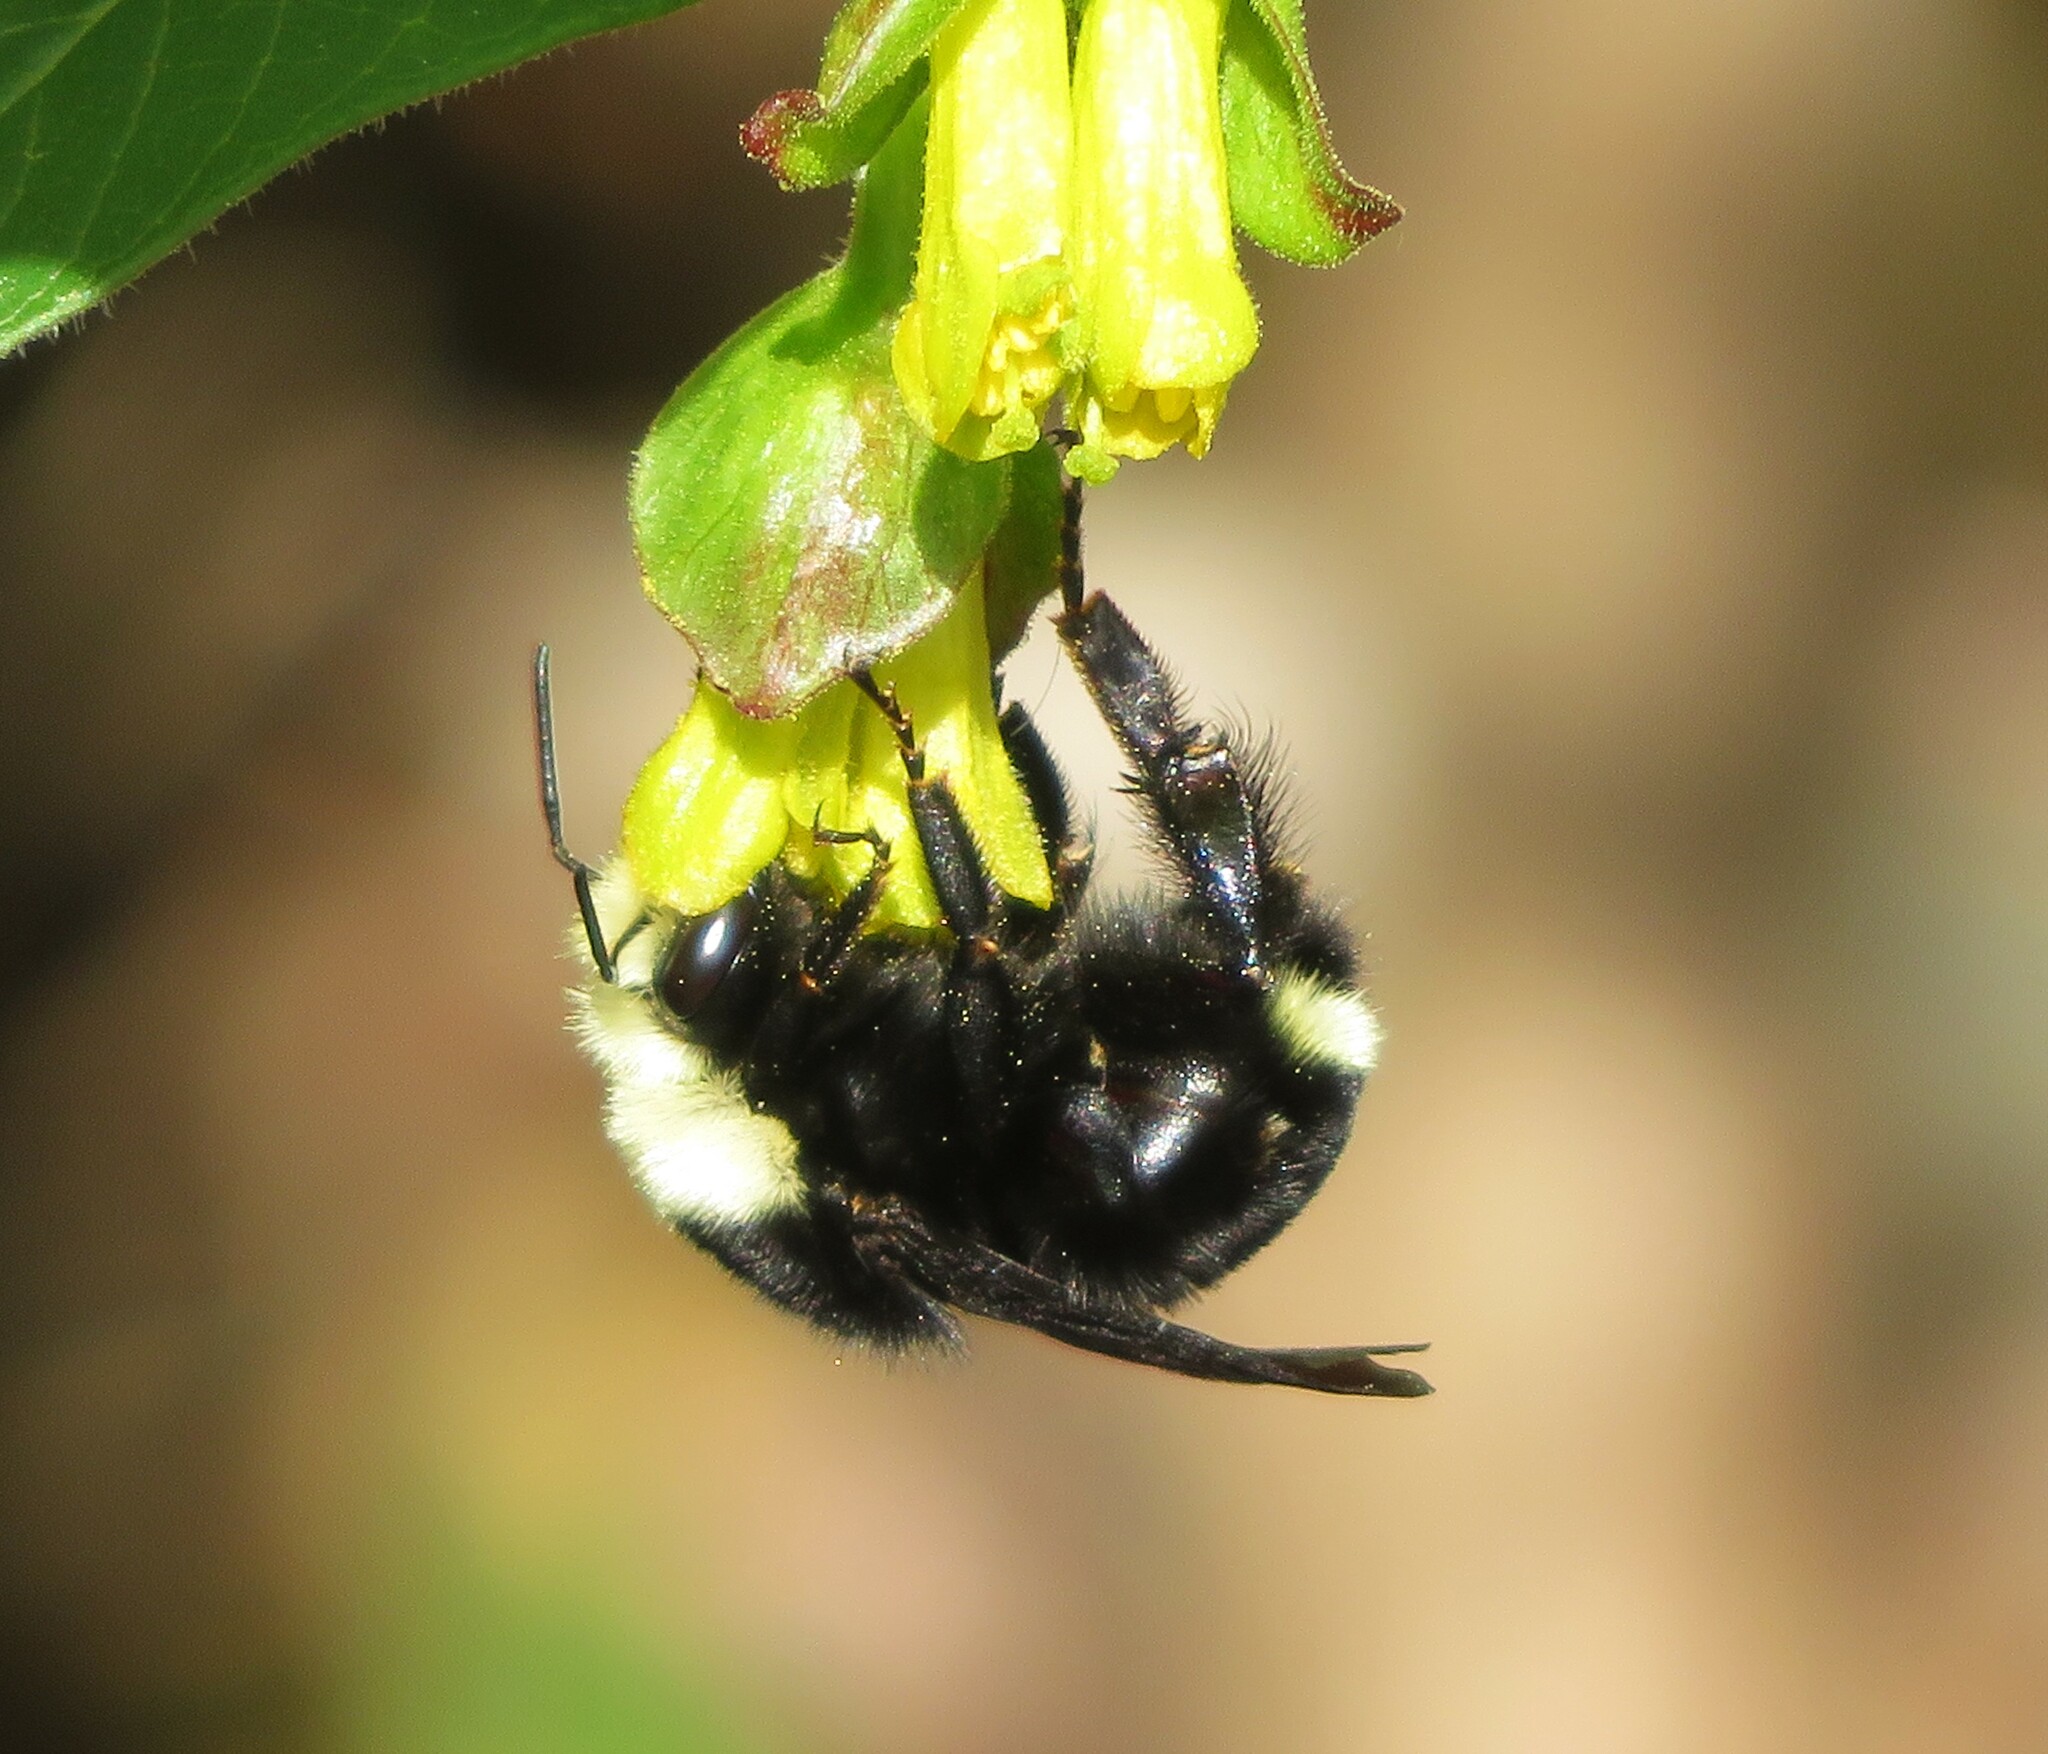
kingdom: Animalia
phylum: Arthropoda
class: Insecta
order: Hymenoptera
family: Apidae
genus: Bombus
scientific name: Bombus vosnesenskii
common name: Vosnesensky bumble bee
